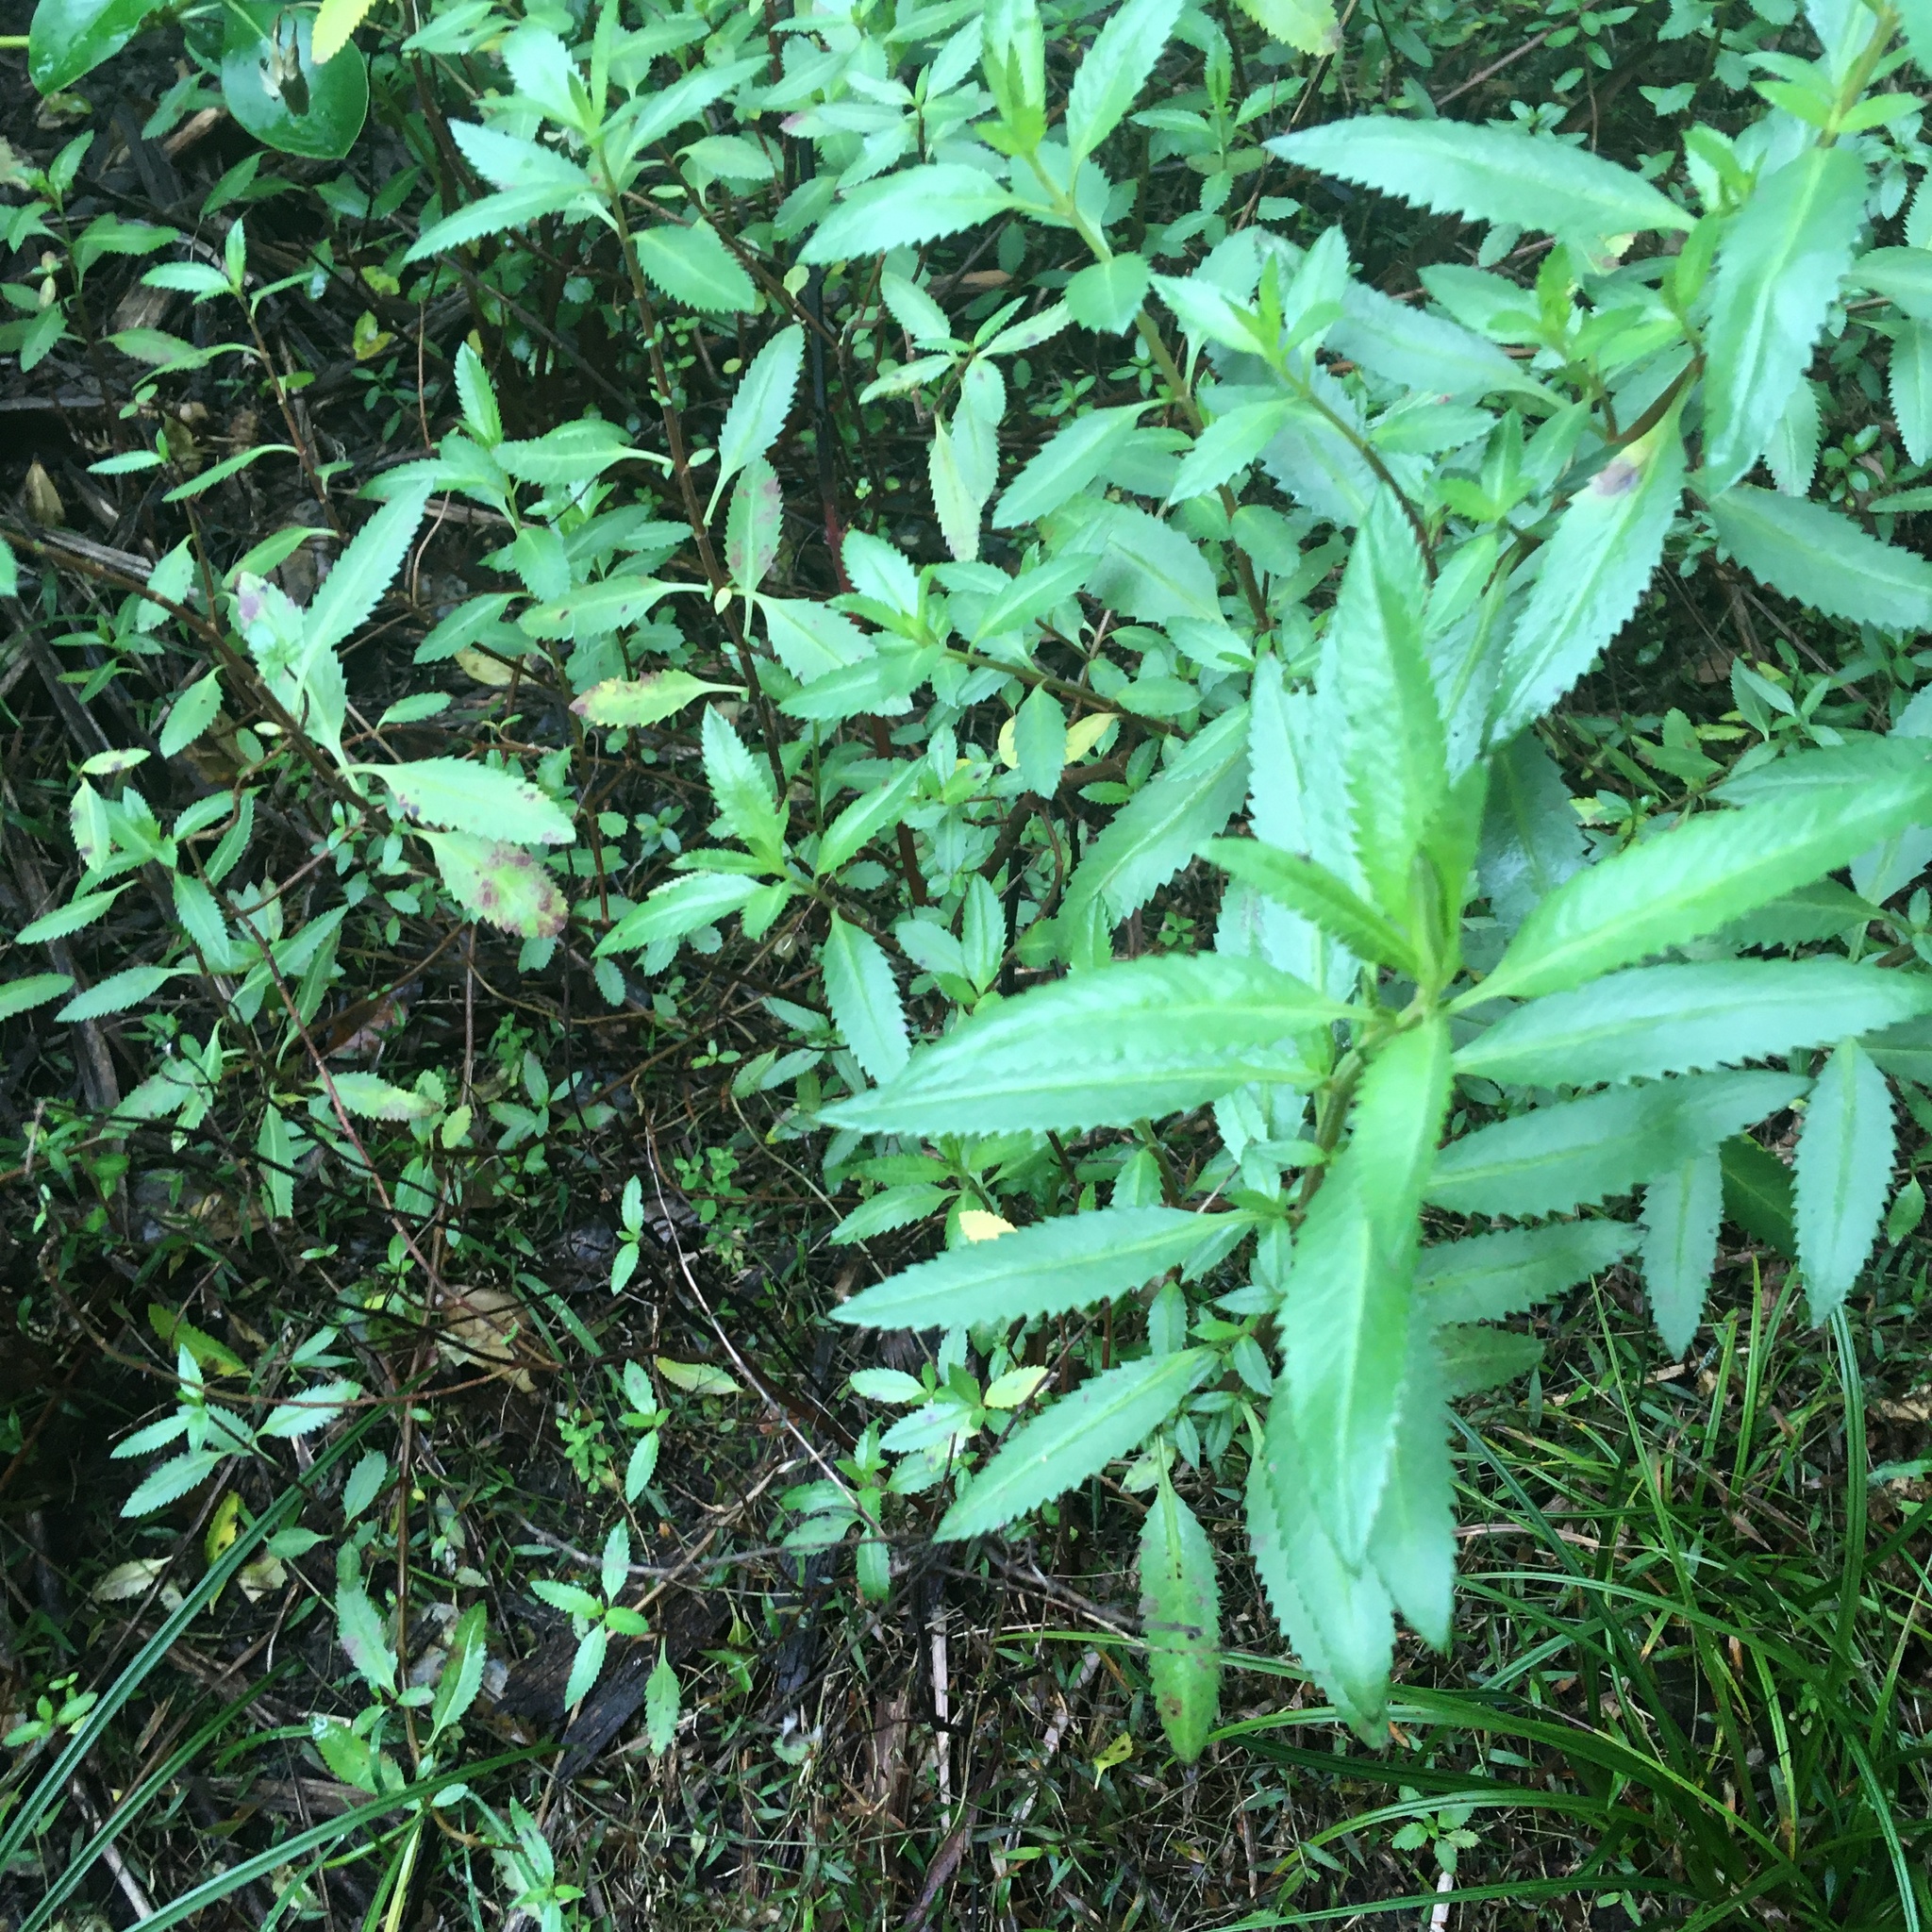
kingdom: Plantae
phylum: Tracheophyta
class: Magnoliopsida
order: Saxifragales
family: Haloragaceae
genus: Haloragis
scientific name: Haloragis erecta
